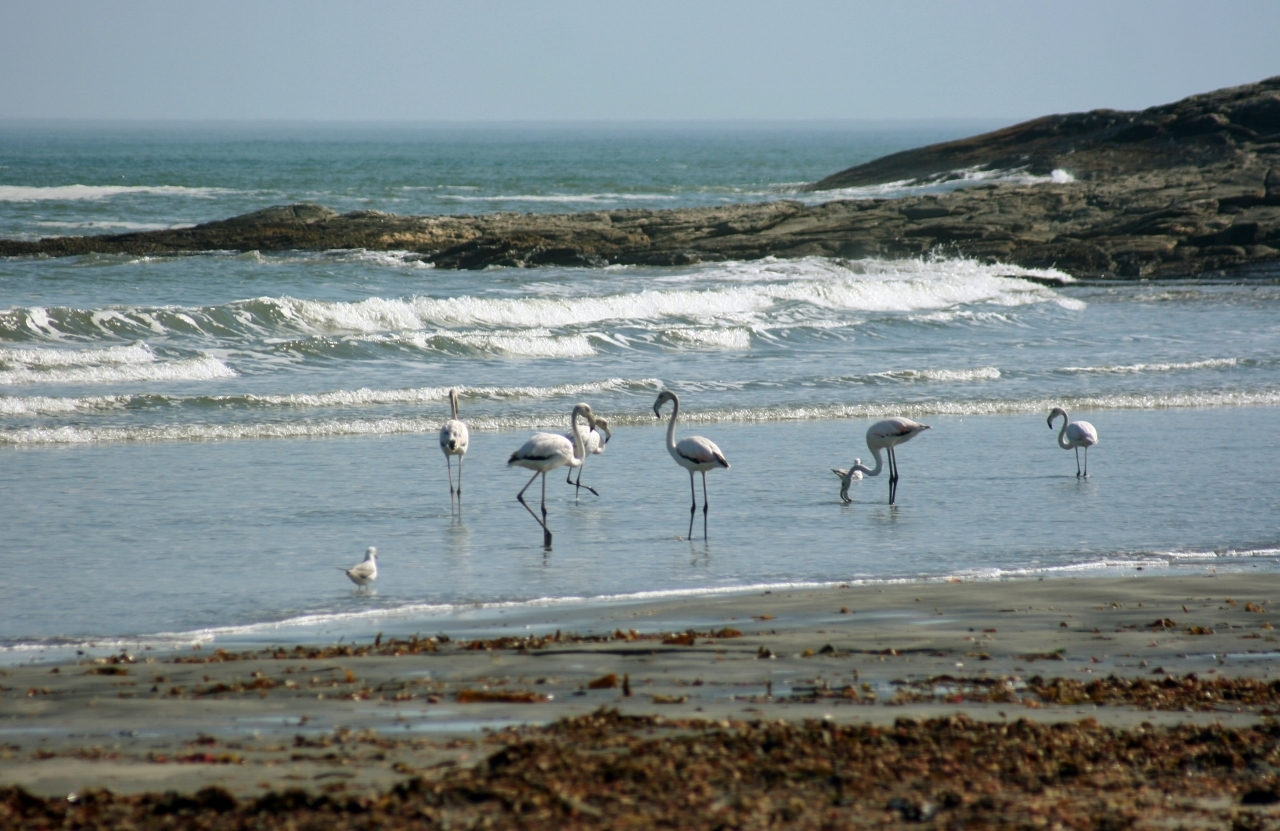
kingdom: Animalia
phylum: Chordata
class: Aves
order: Phoenicopteriformes
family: Phoenicopteridae
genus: Phoenicopterus
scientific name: Phoenicopterus roseus
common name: Greater flamingo
